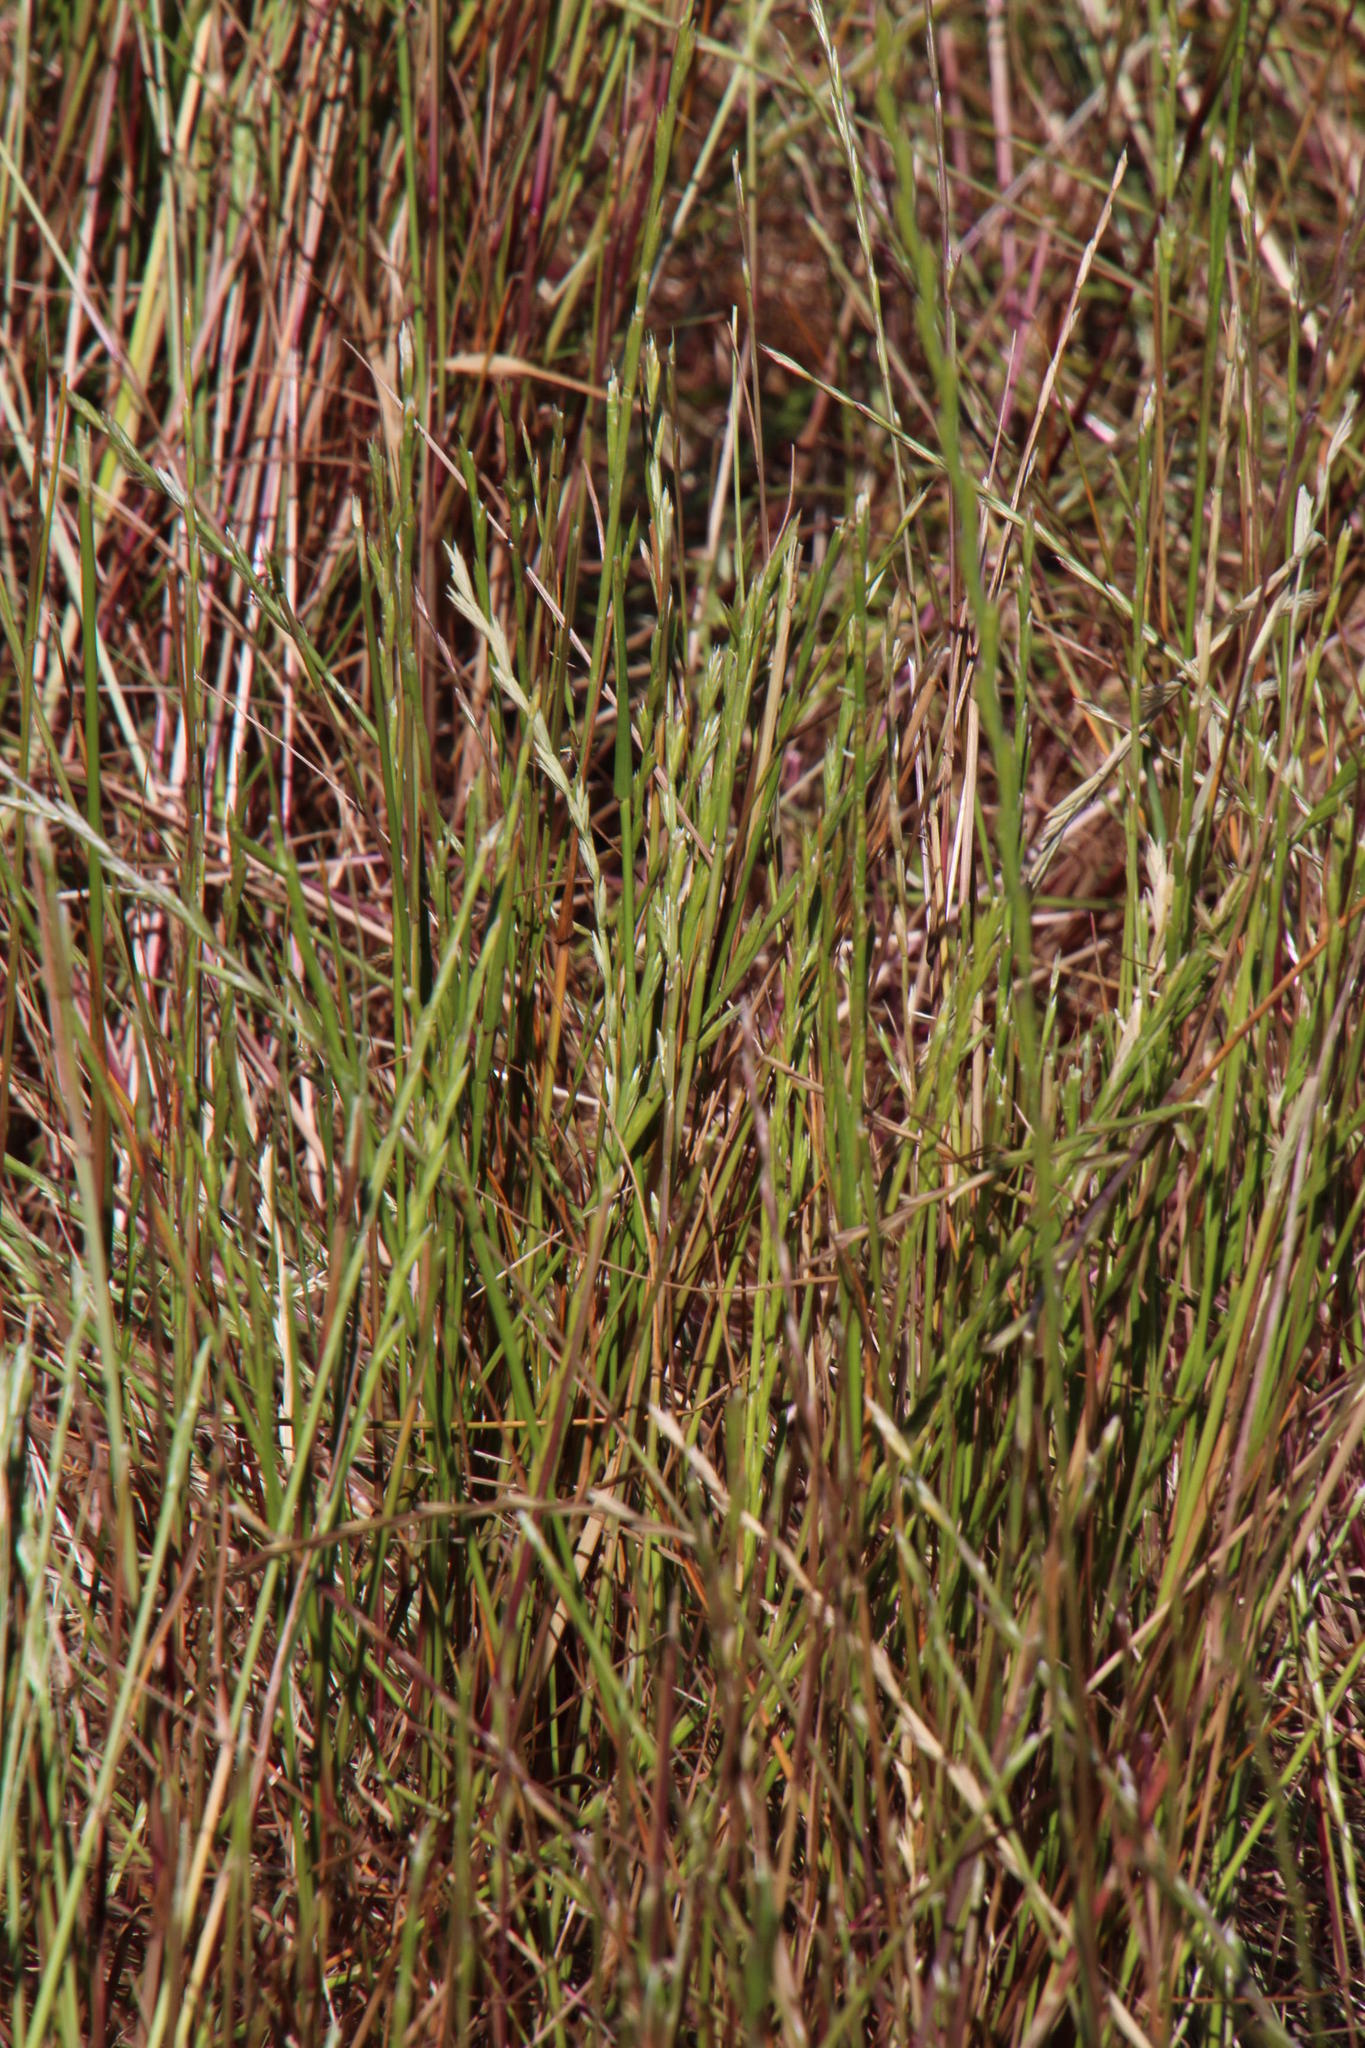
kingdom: Plantae
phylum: Tracheophyta
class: Liliopsida
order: Poales
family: Poaceae
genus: Lolium
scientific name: Lolium multiflorum
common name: Annual ryegrass
